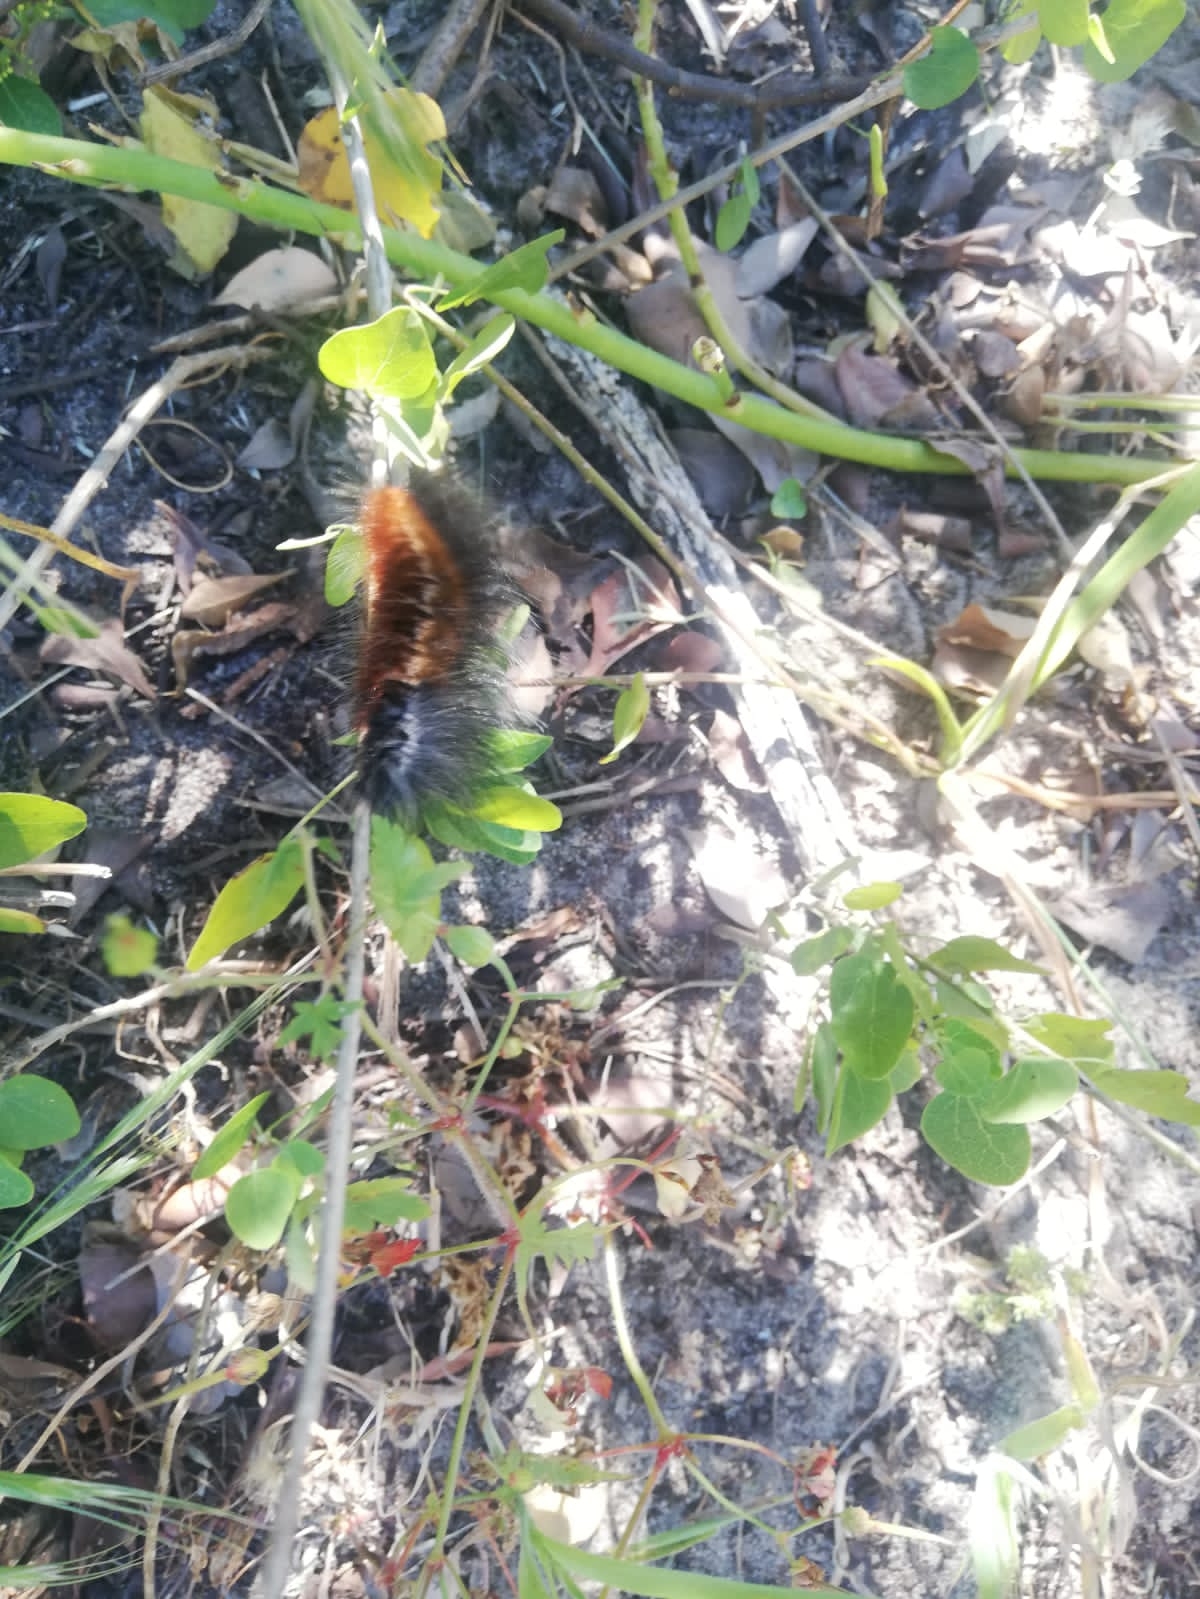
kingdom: Animalia
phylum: Arthropoda
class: Insecta
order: Lepidoptera
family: Lasiocampidae
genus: Mesocelis
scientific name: Mesocelis monticola
